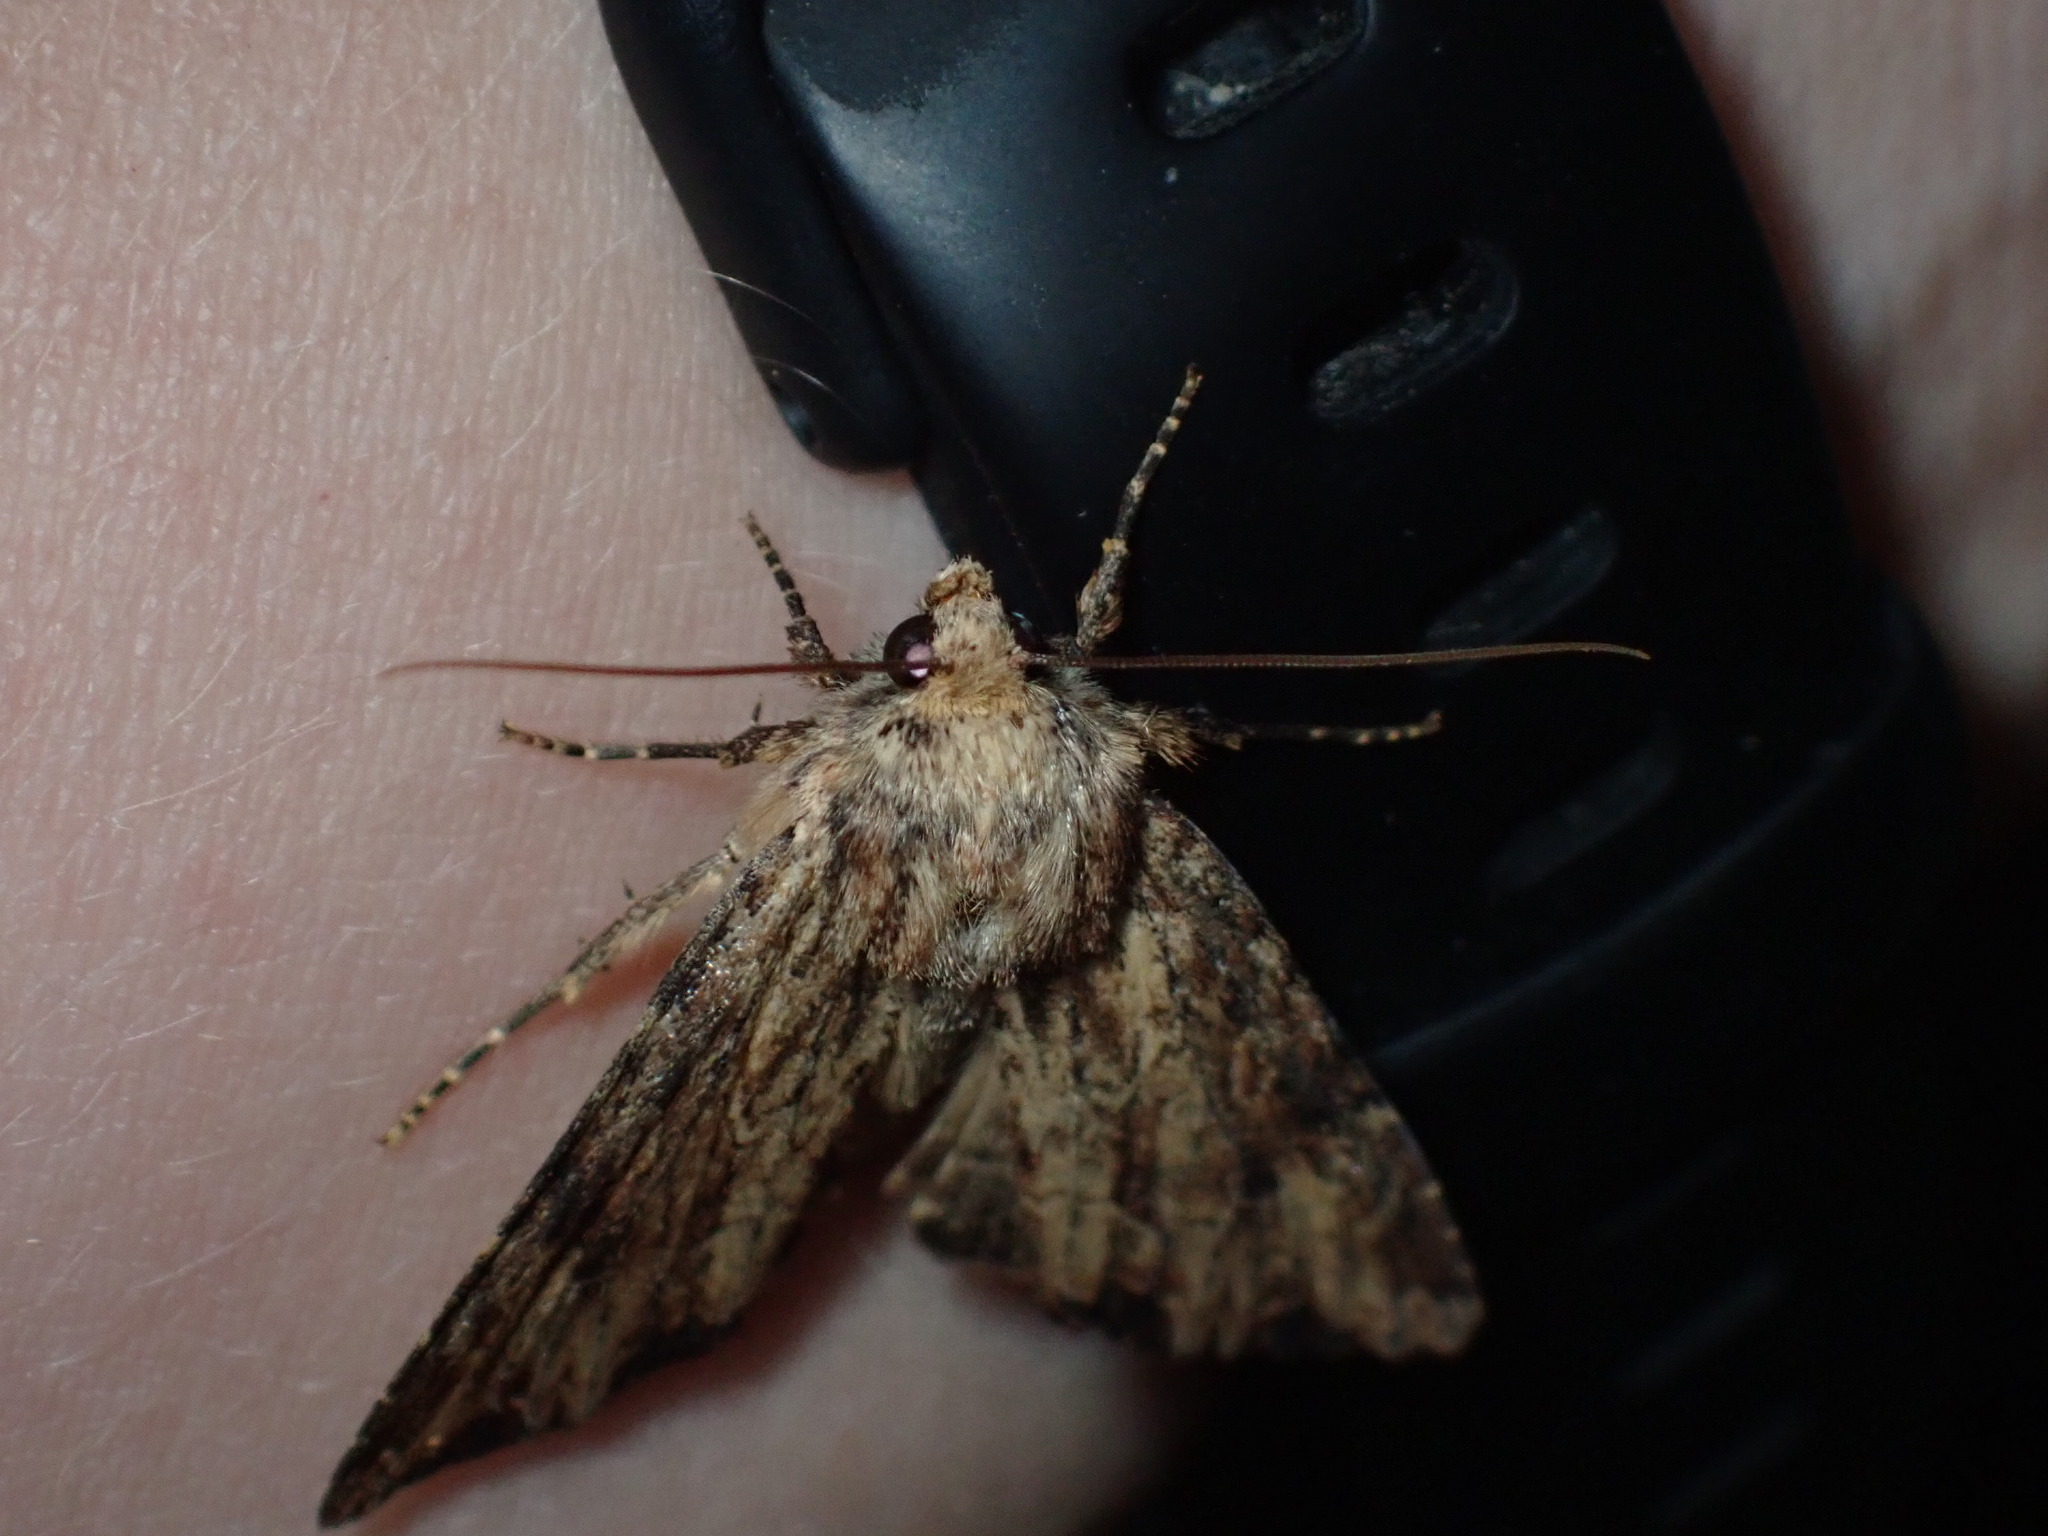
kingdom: Animalia
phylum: Arthropoda
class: Insecta
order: Lepidoptera
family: Noctuidae
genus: Apamea
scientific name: Apamea lignicolora
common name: Wood-colored apamea moth
